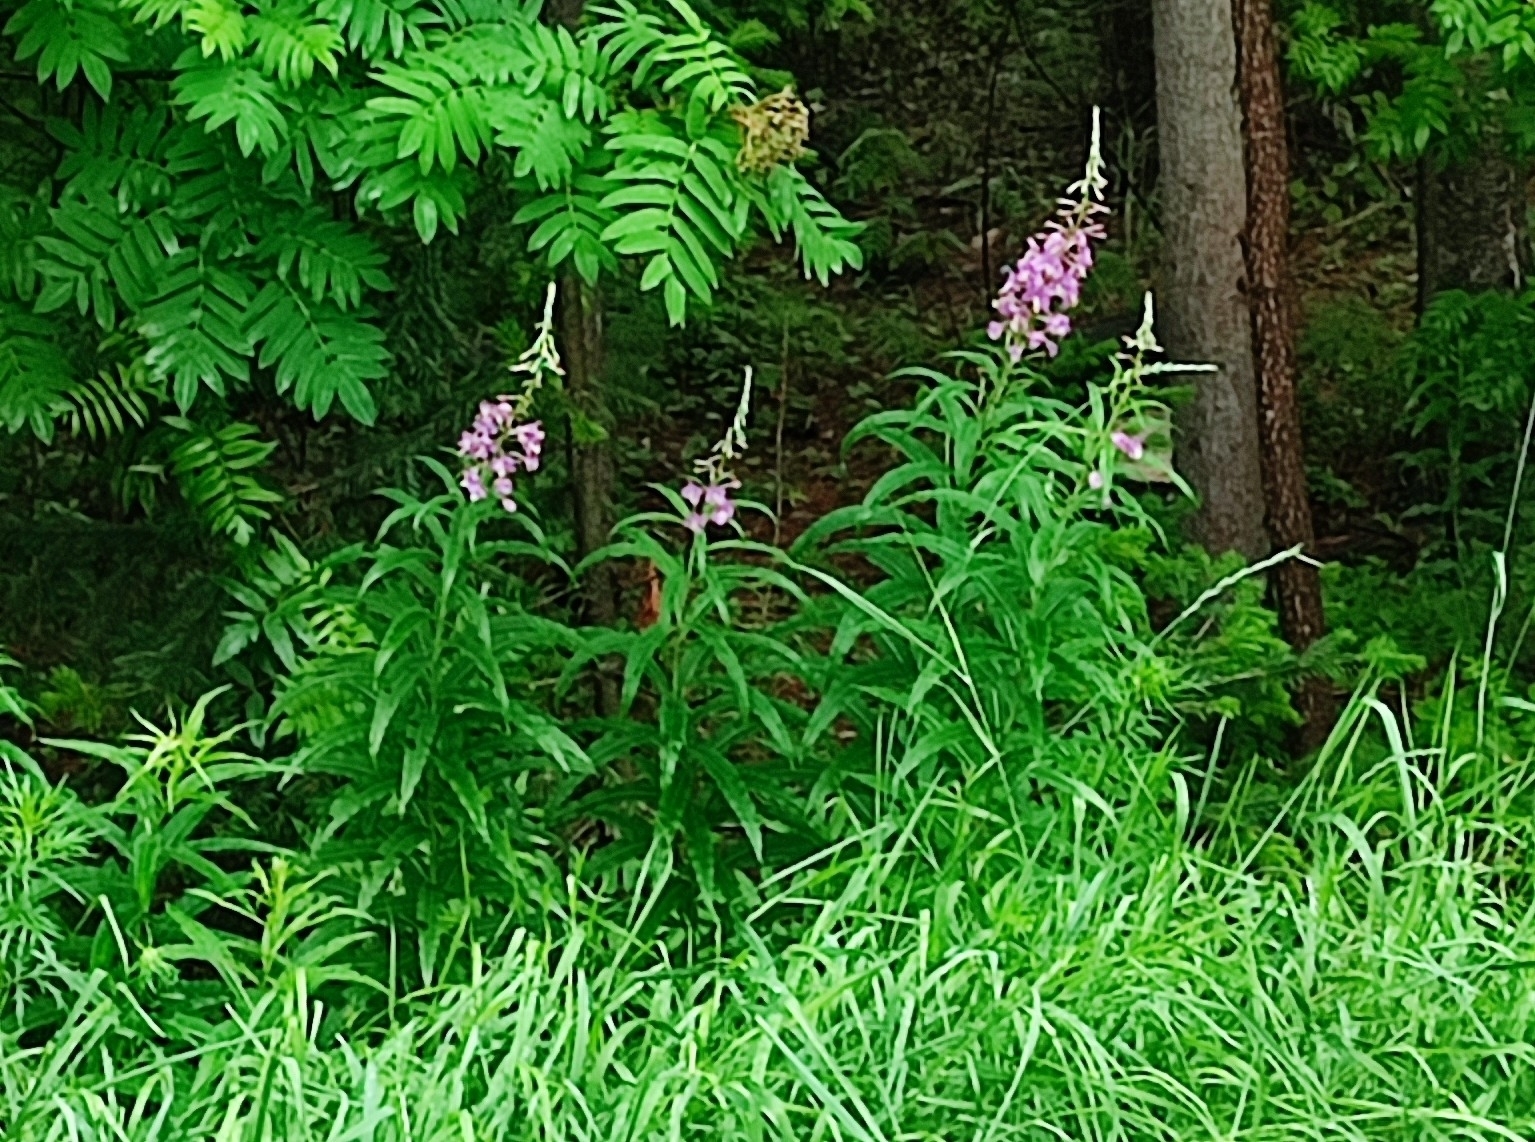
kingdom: Plantae
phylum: Tracheophyta
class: Magnoliopsida
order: Myrtales
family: Onagraceae
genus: Chamaenerion
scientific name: Chamaenerion angustifolium
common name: Fireweed
